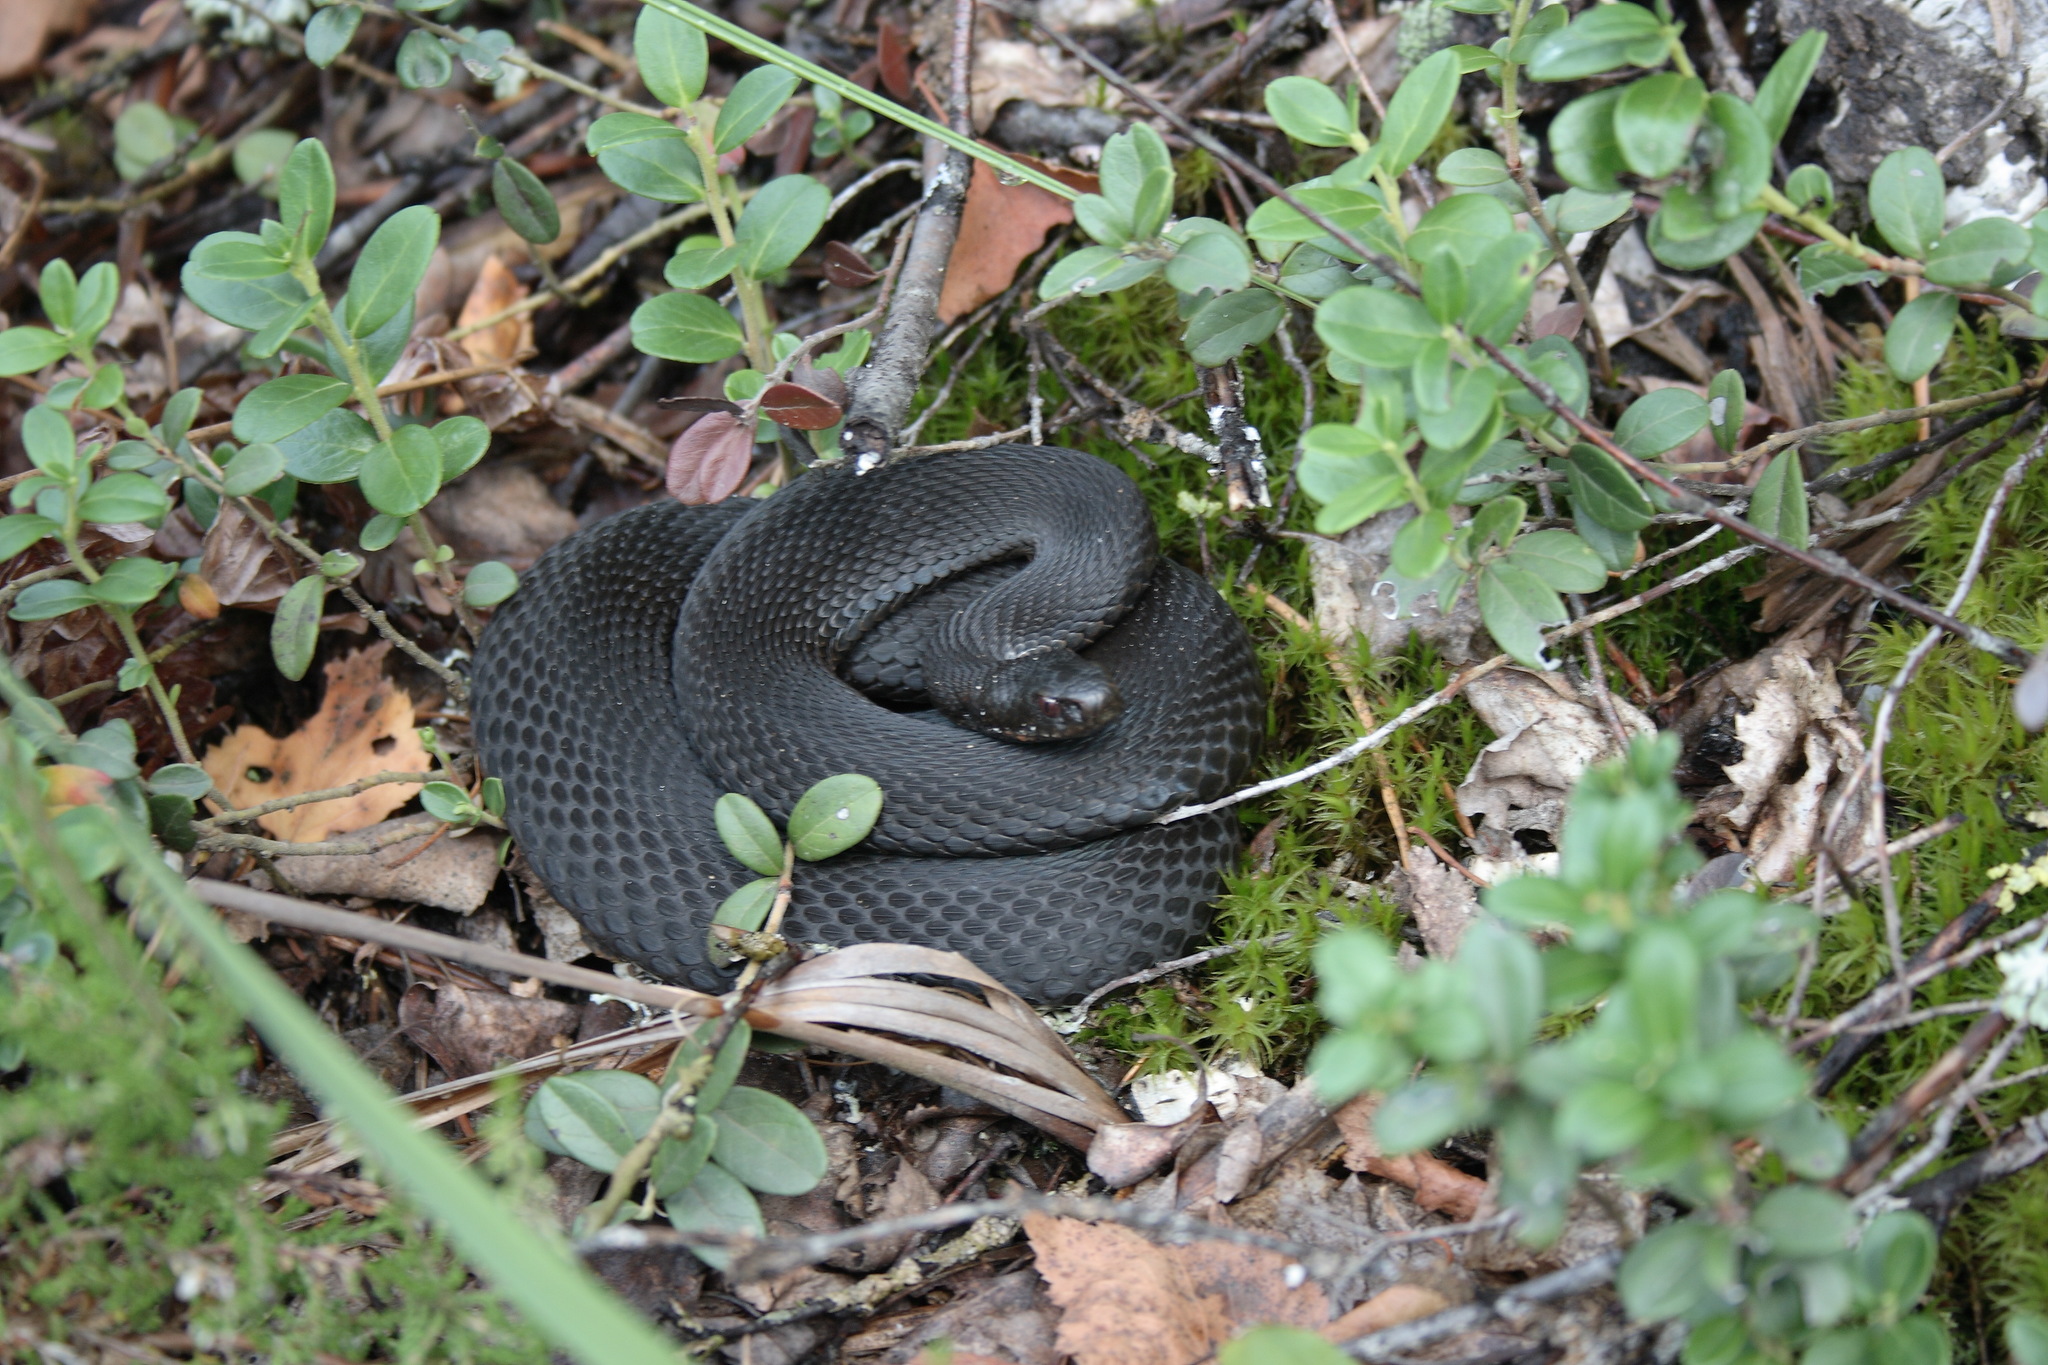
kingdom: Animalia
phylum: Chordata
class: Squamata
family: Viperidae
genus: Vipera
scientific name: Vipera berus
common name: Adder
